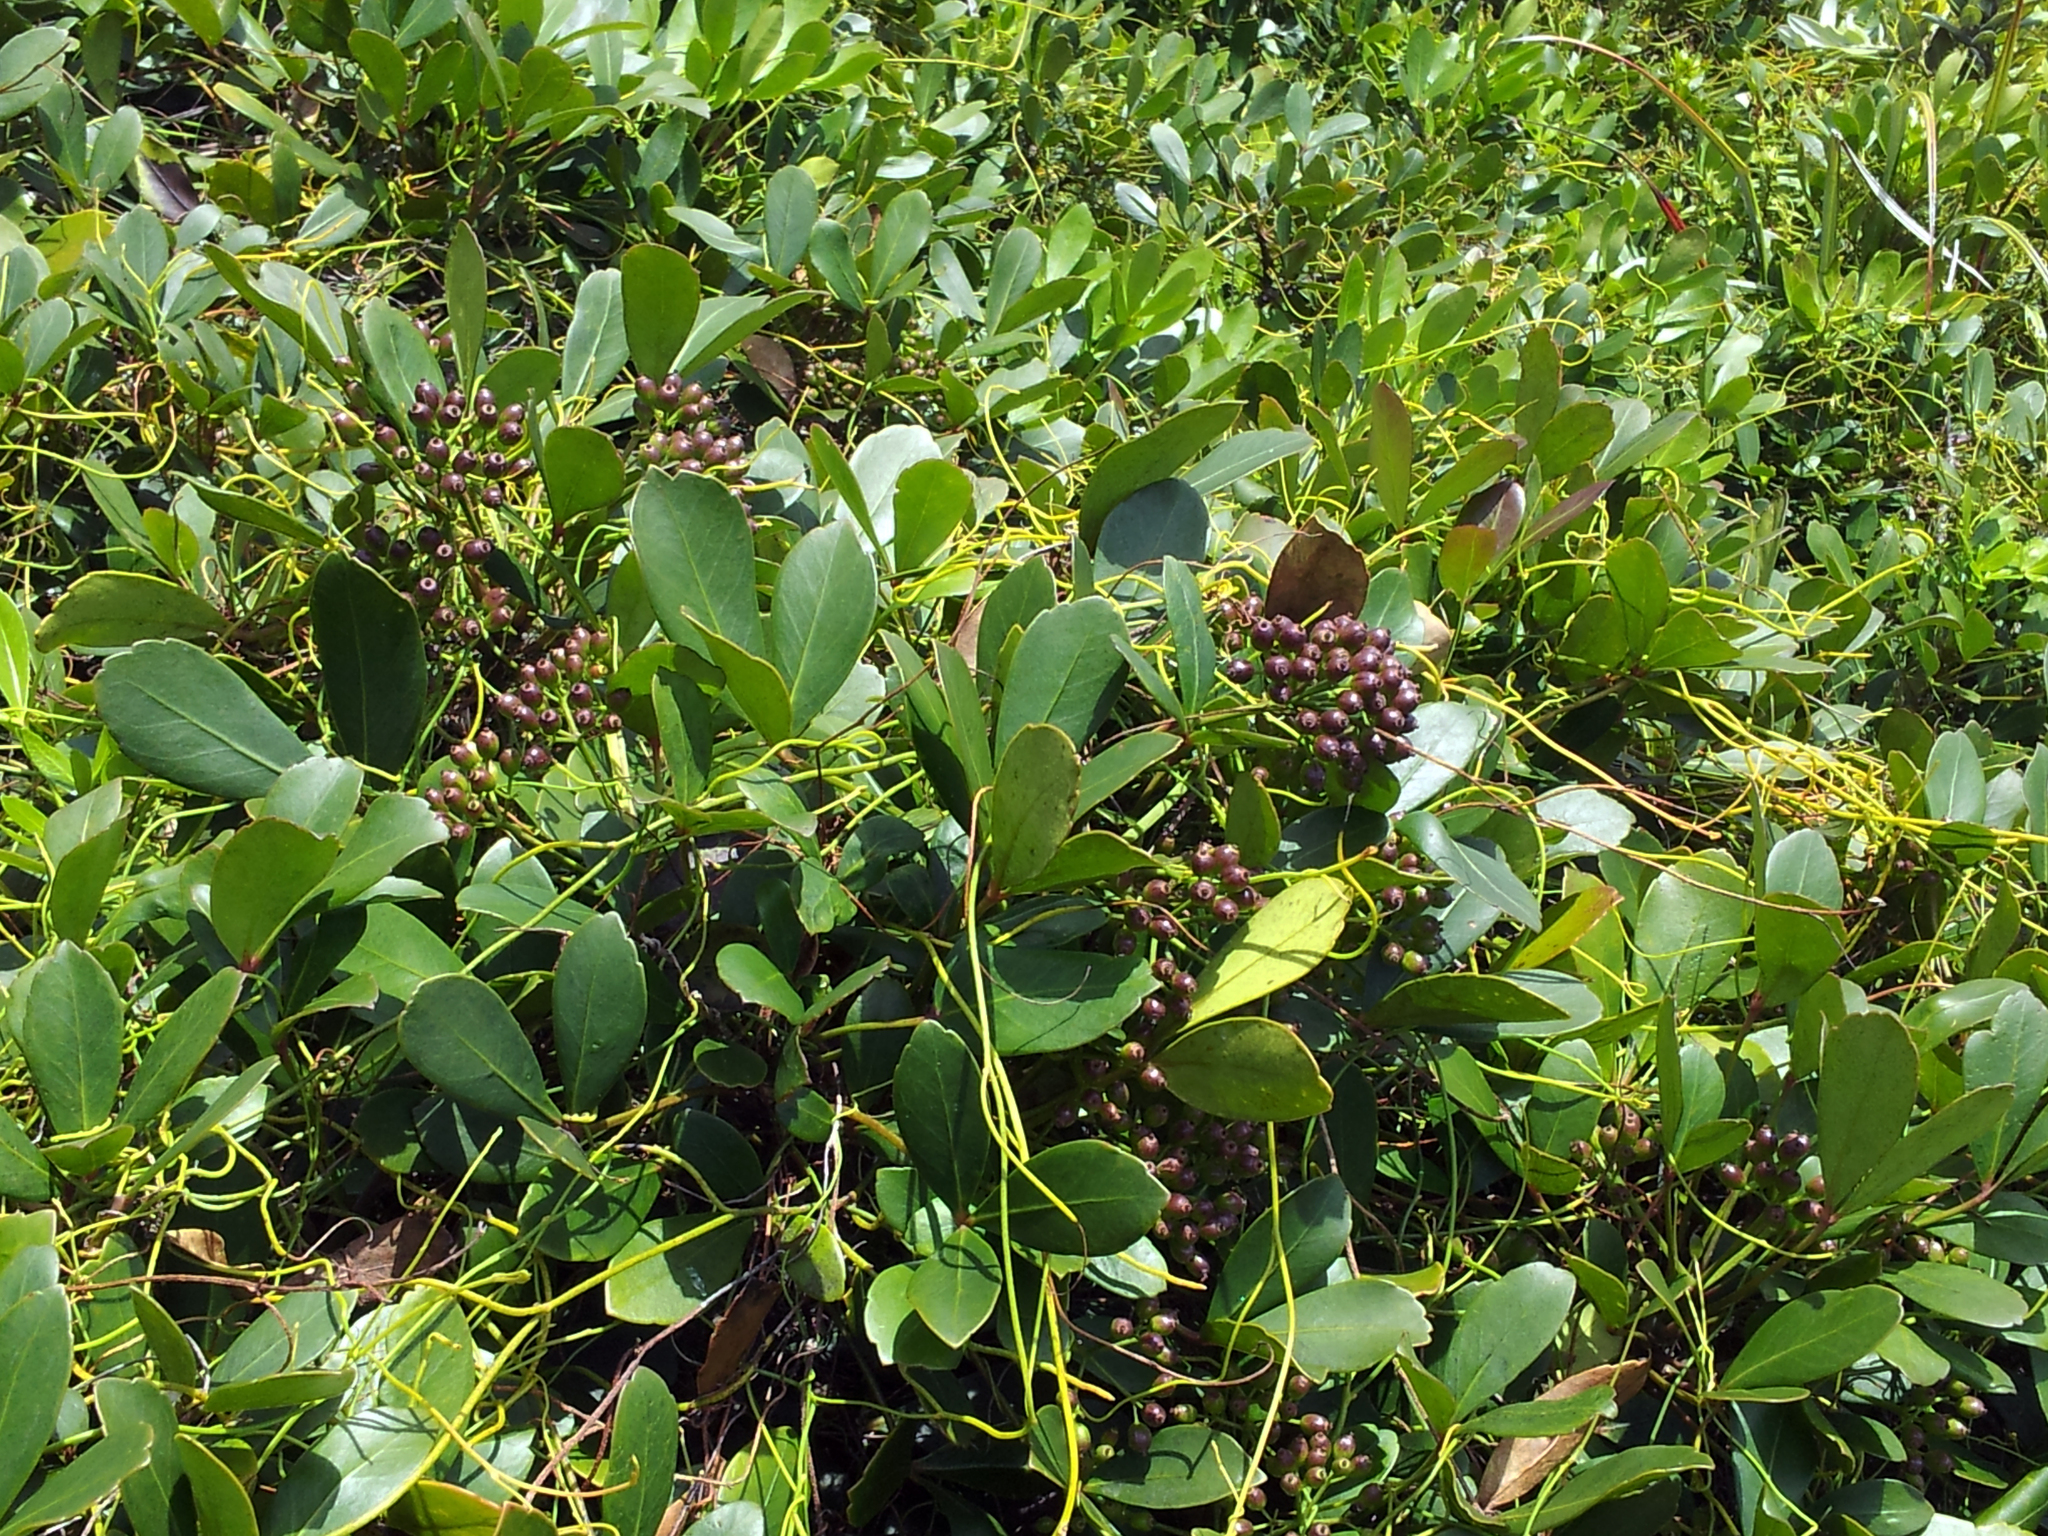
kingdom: Plantae
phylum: Tracheophyta
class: Magnoliopsida
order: Apiales
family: Araliaceae
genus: Pseudopanax
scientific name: Pseudopanax lessonii
